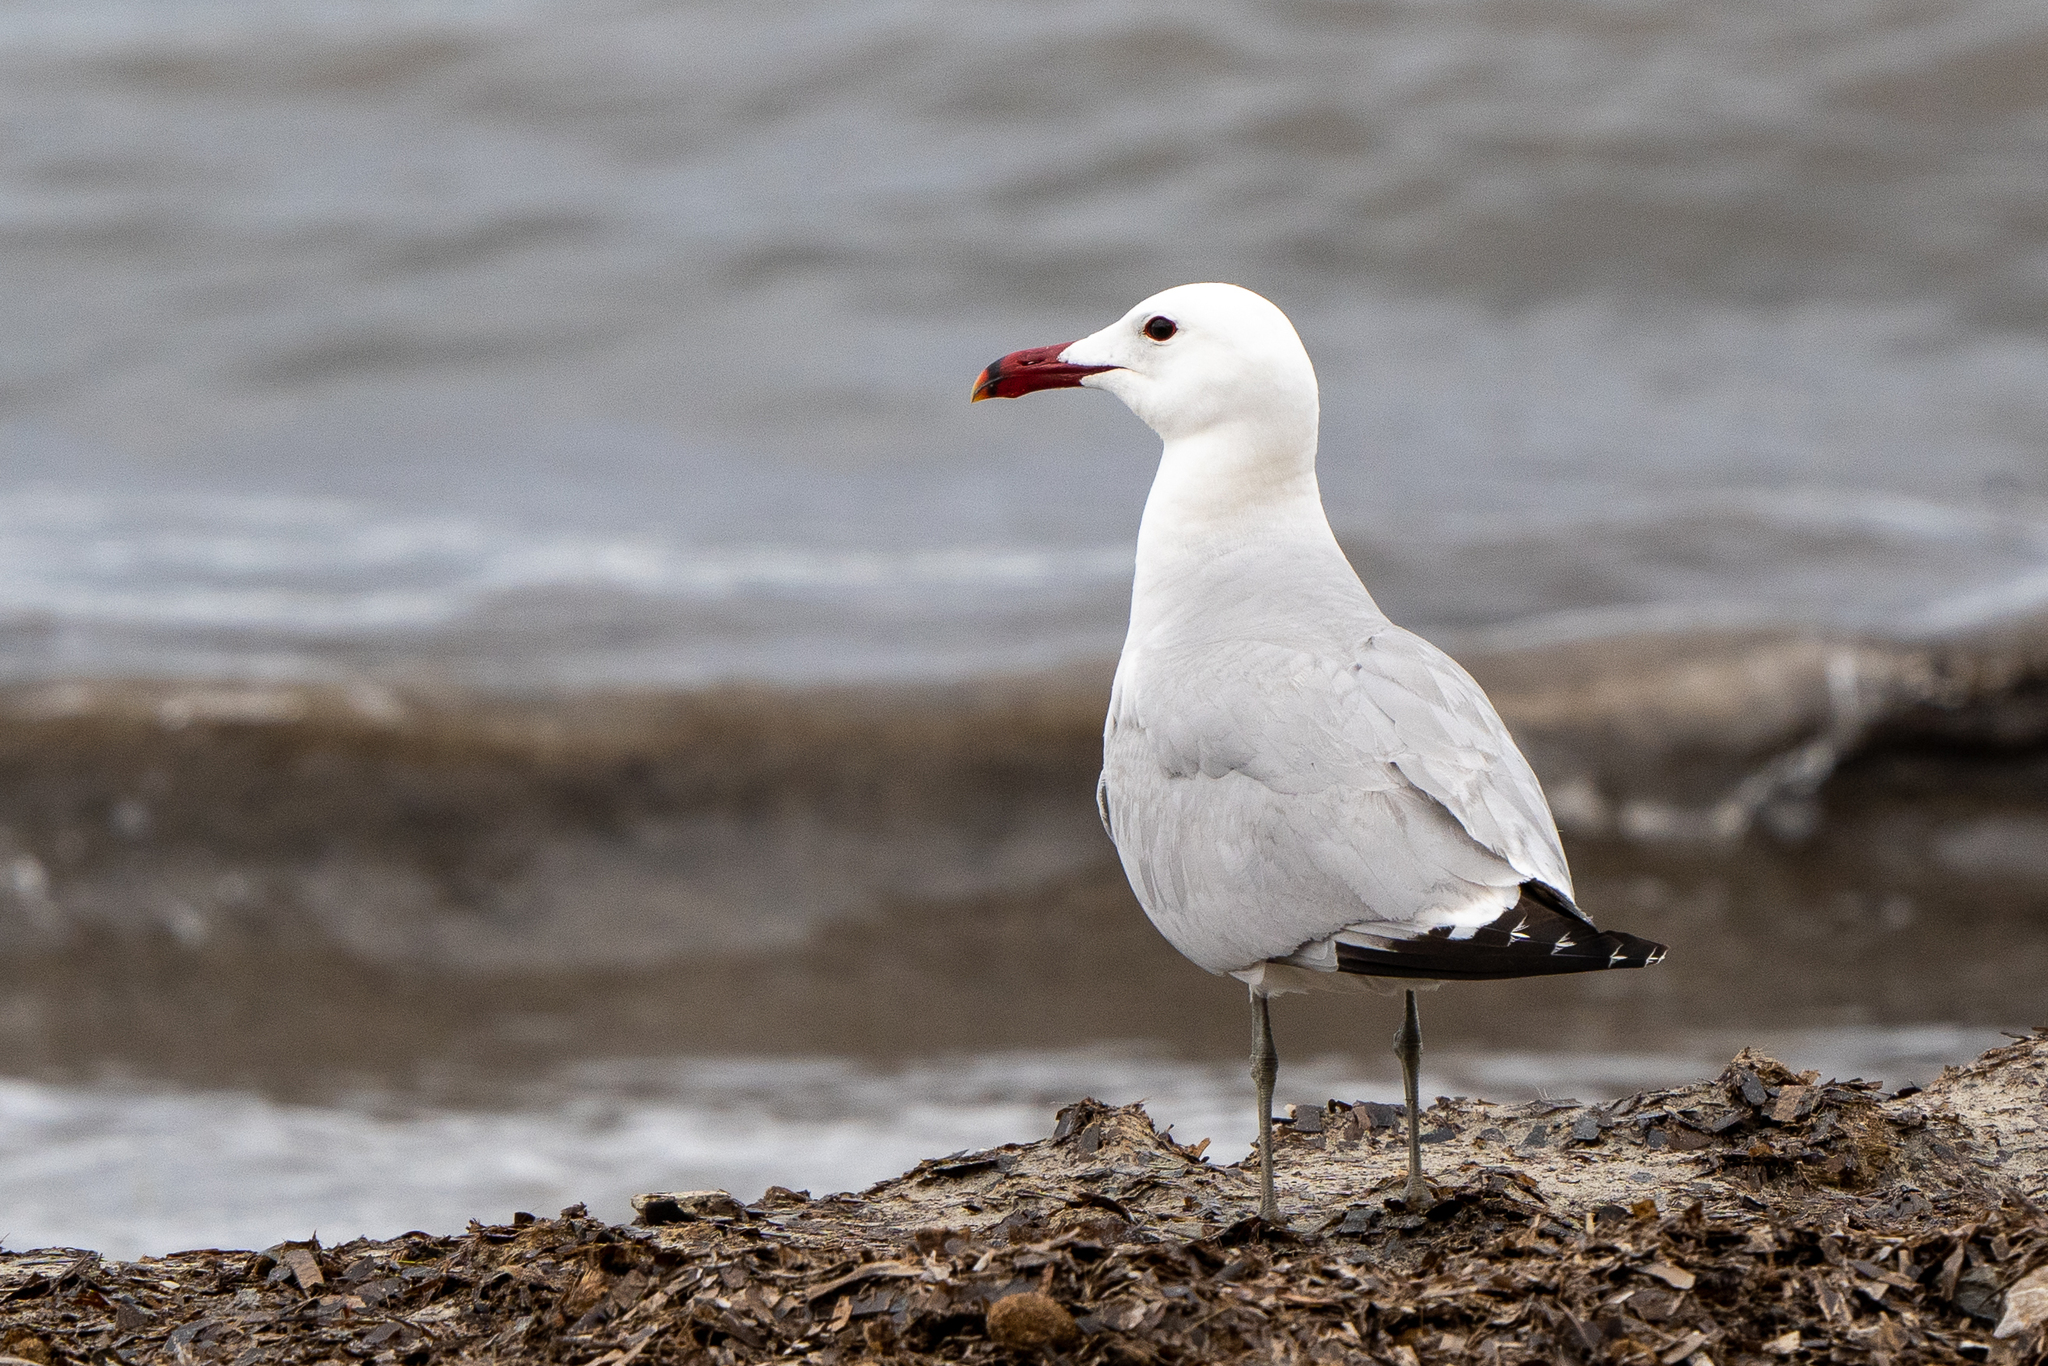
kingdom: Animalia
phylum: Chordata
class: Aves
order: Charadriiformes
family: Laridae
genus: Ichthyaetus
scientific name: Ichthyaetus audouinii
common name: Audouin's gull
